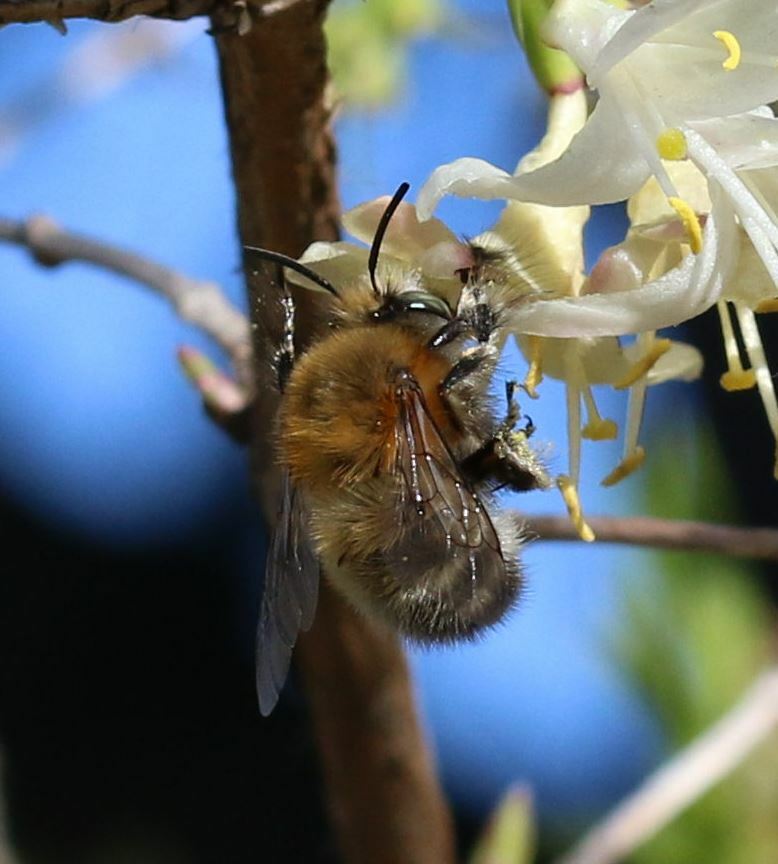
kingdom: Animalia
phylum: Arthropoda
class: Insecta
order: Hymenoptera
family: Apidae
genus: Anthophora
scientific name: Anthophora plumipes
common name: Hairy-footed flower bee
